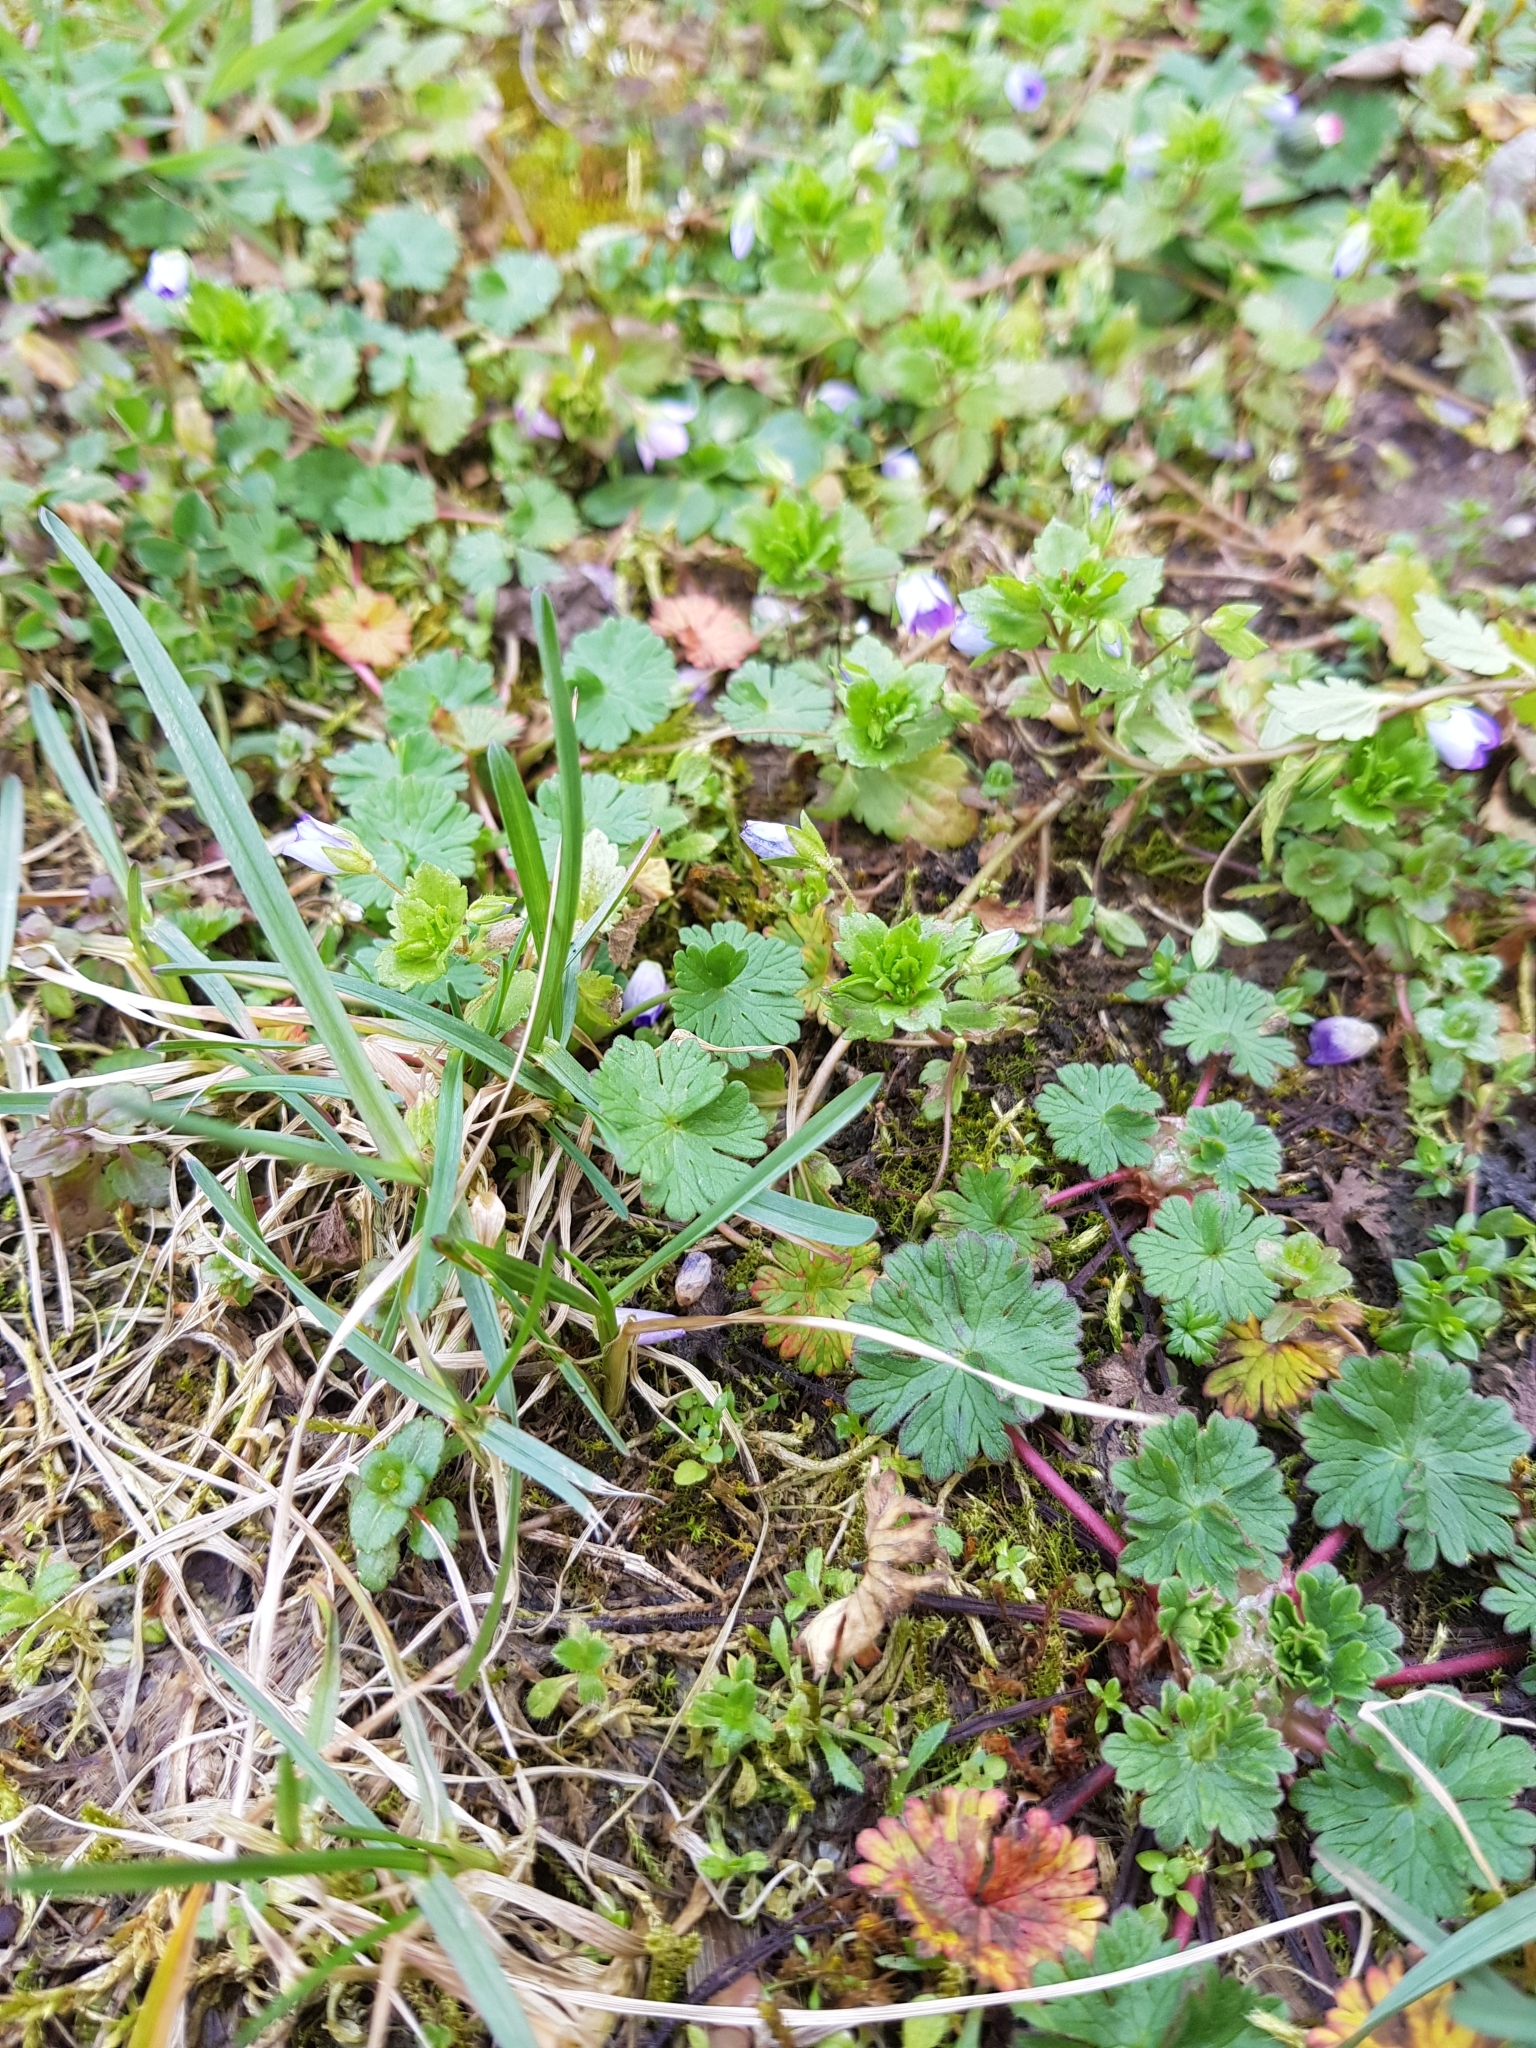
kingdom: Plantae
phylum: Tracheophyta
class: Magnoliopsida
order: Lamiales
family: Plantaginaceae
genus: Veronica
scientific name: Veronica persica
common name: Common field-speedwell
